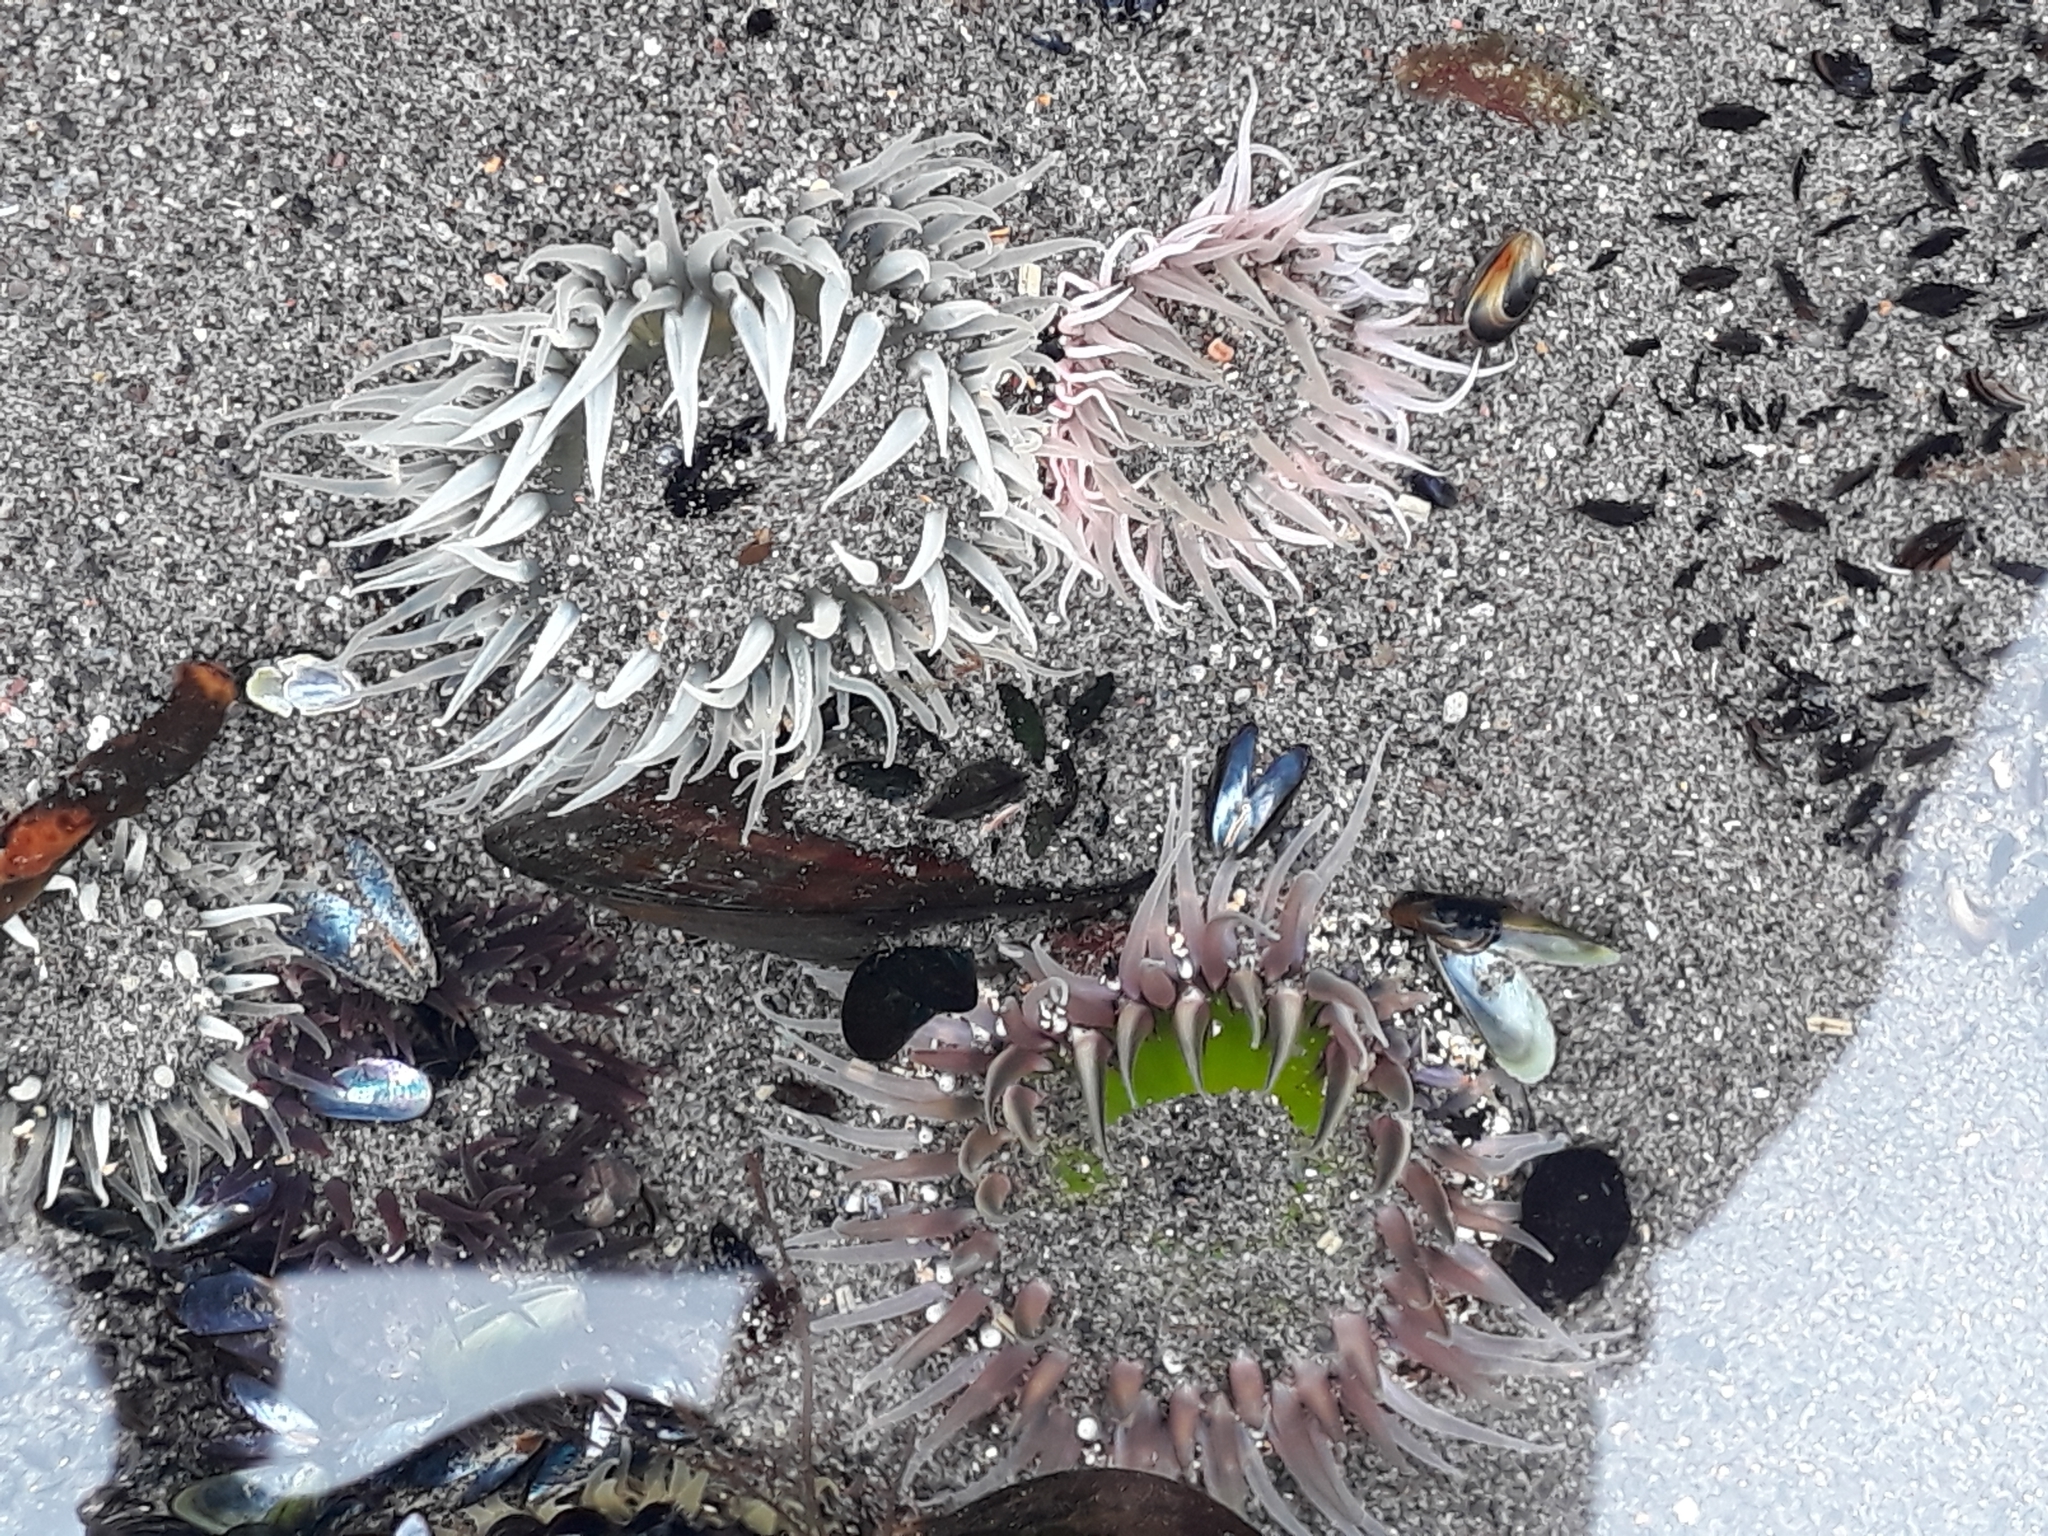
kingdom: Animalia
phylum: Cnidaria
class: Anthozoa
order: Actiniaria
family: Actiniidae
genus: Oulactis
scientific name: Oulactis magna
